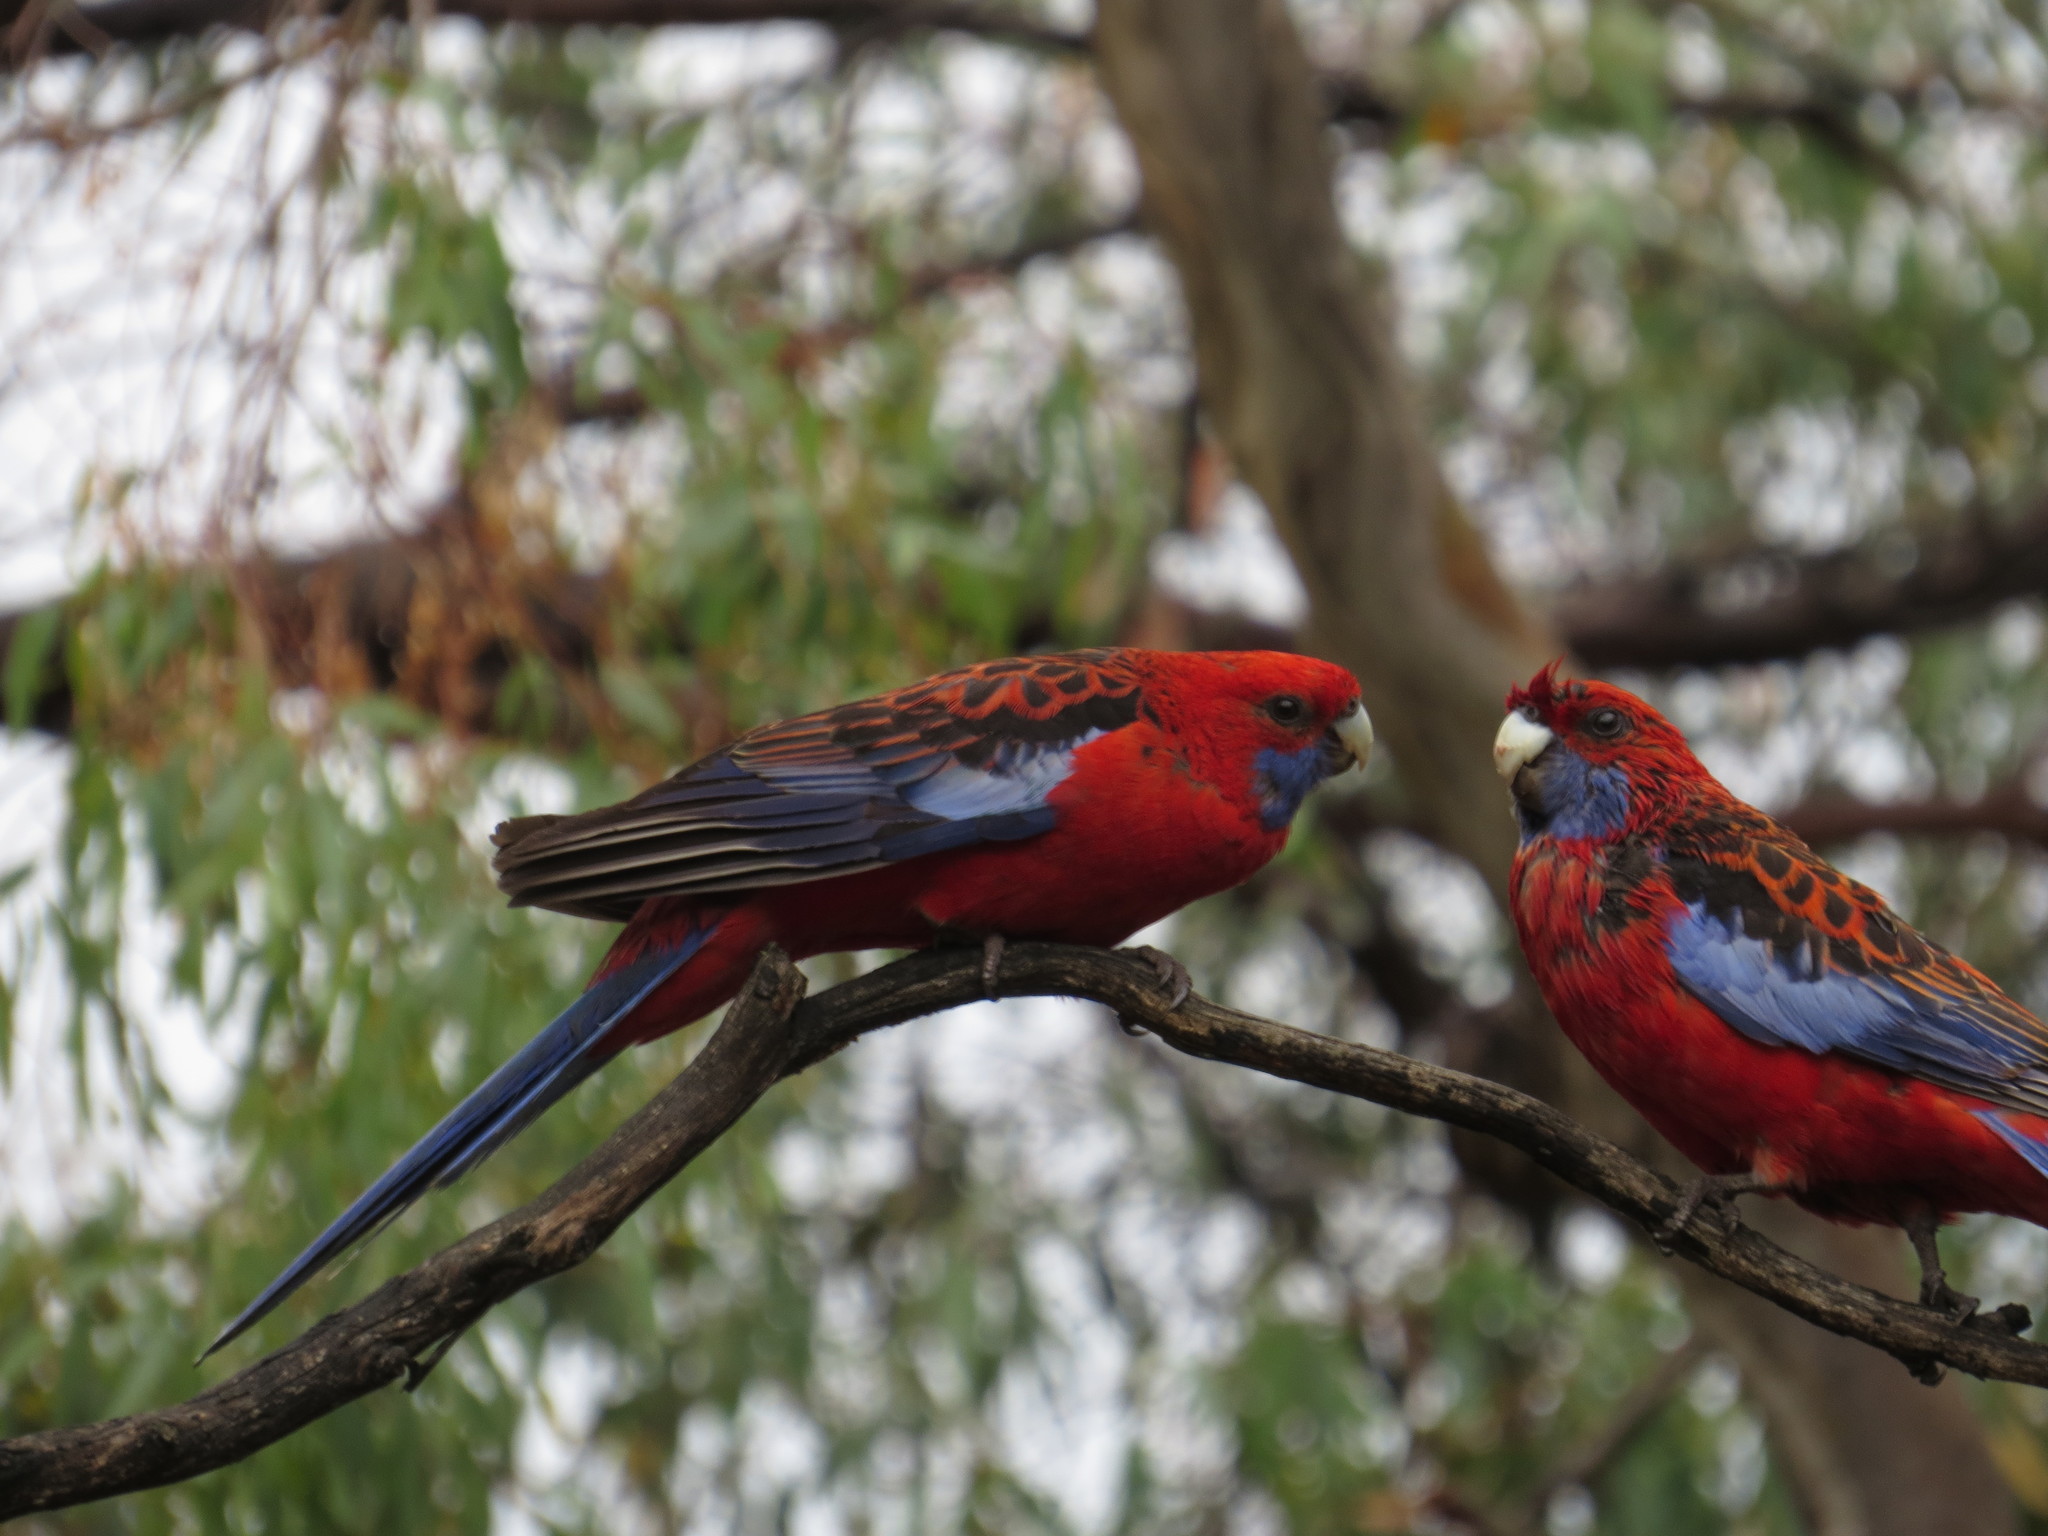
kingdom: Animalia
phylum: Chordata
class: Aves
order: Psittaciformes
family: Psittacidae
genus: Platycercus
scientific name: Platycercus elegans
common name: Crimson rosella
